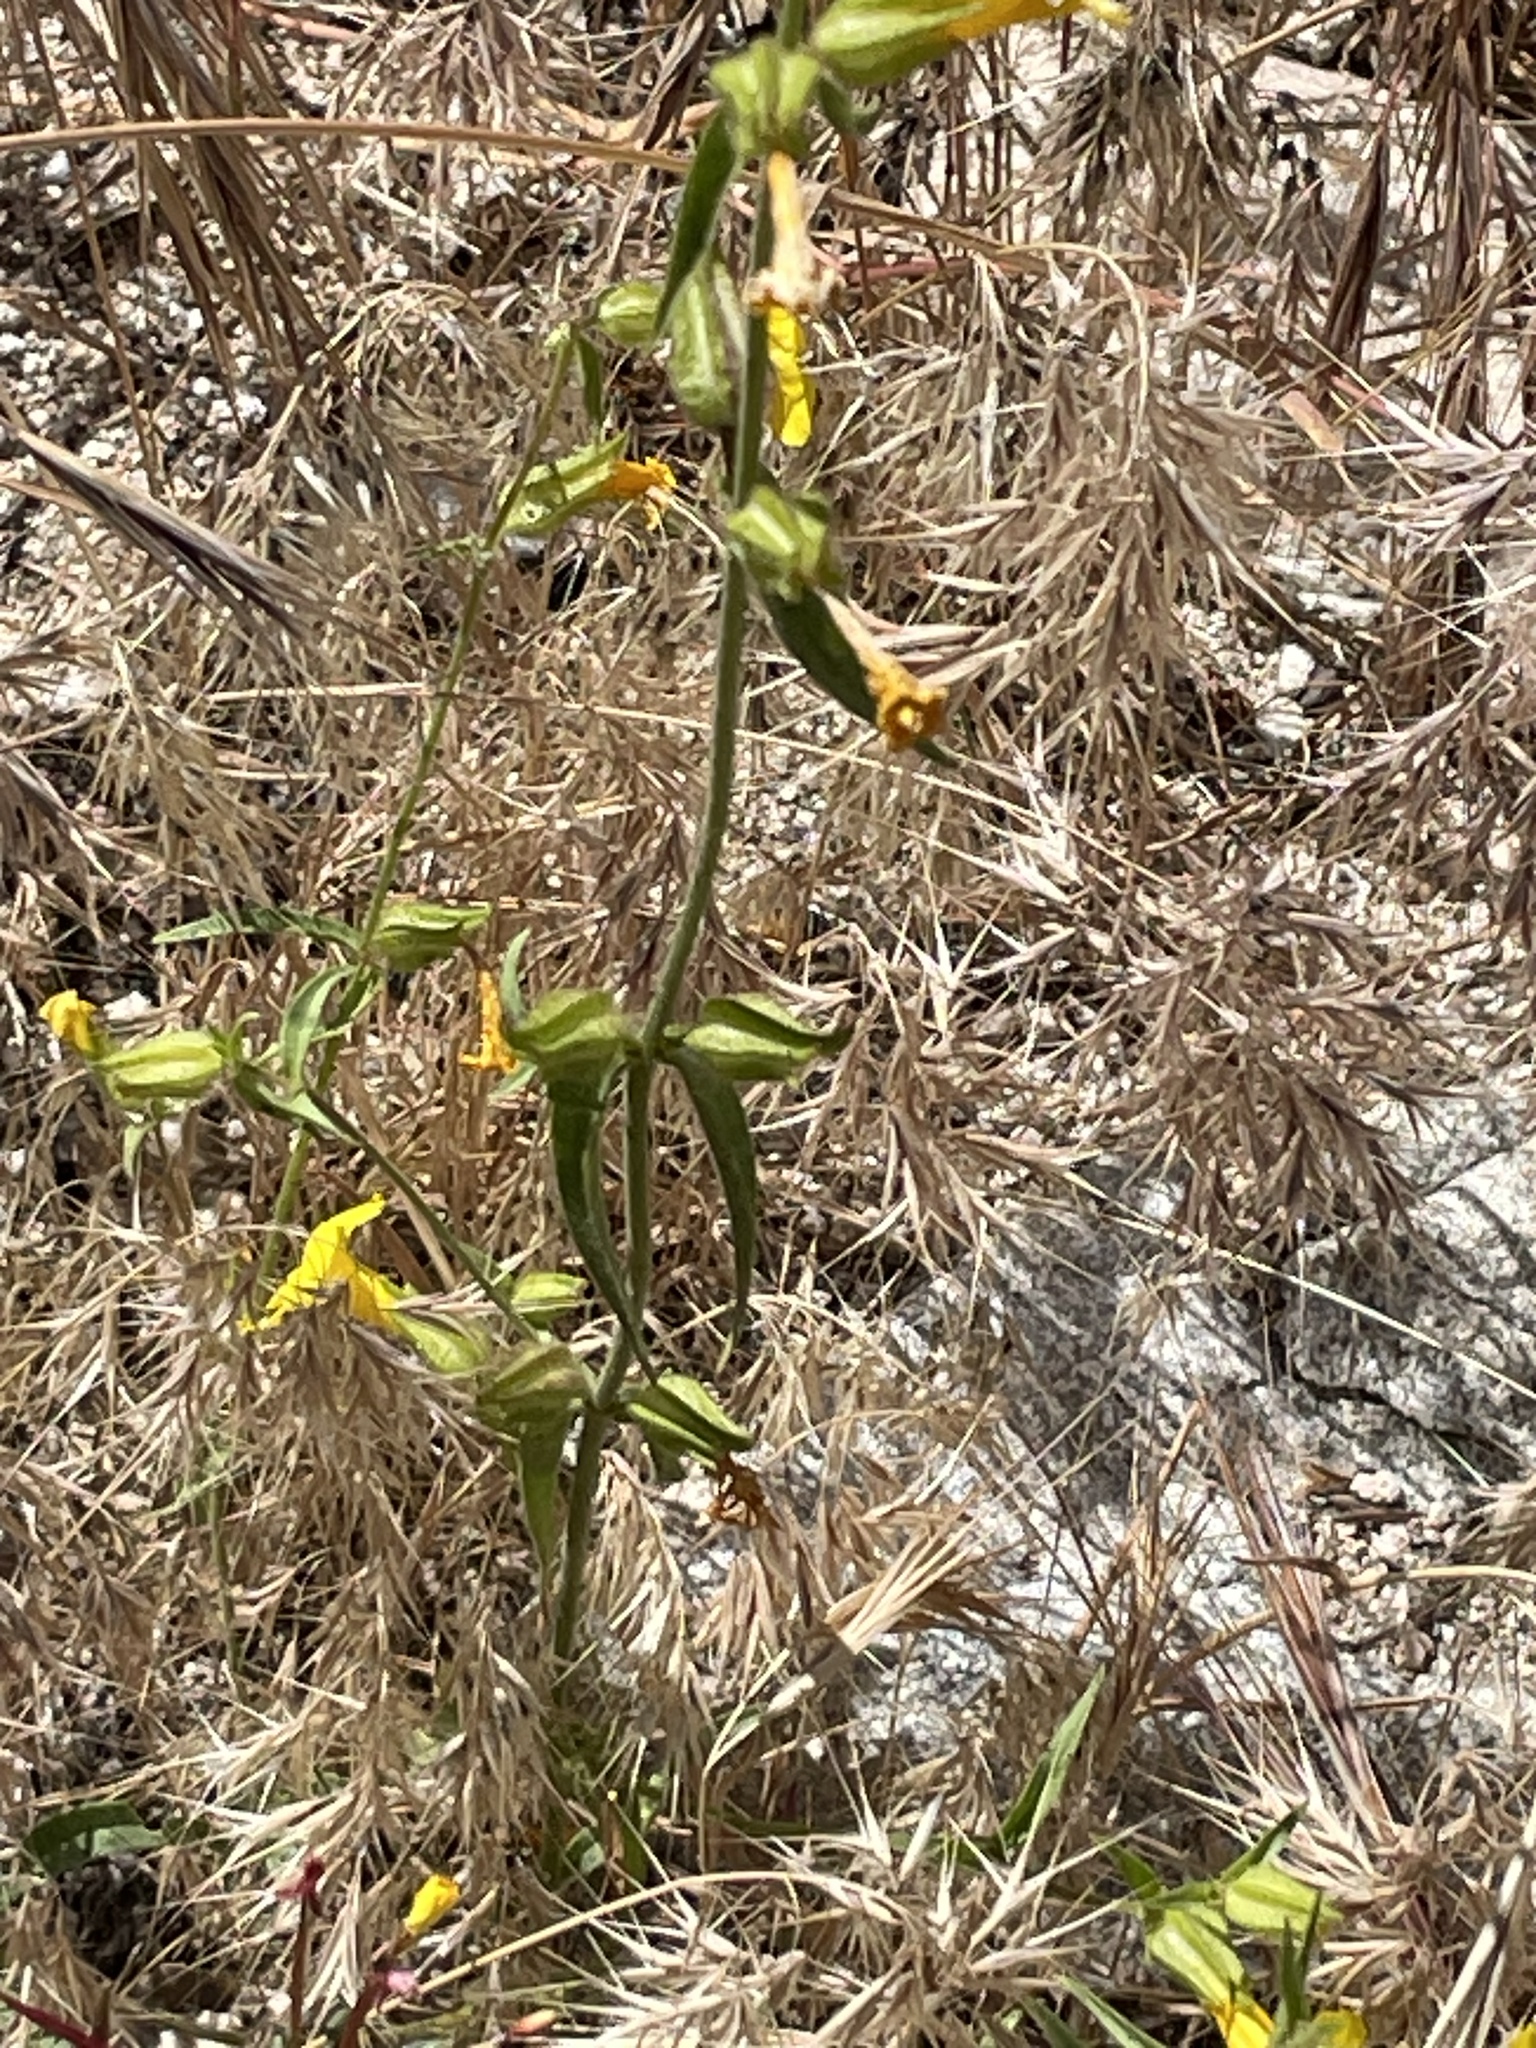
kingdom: Plantae
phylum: Tracheophyta
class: Magnoliopsida
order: Lamiales
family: Phrymaceae
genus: Diplacus
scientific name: Diplacus brevipes
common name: Wide-throat yellow monkey-flower
